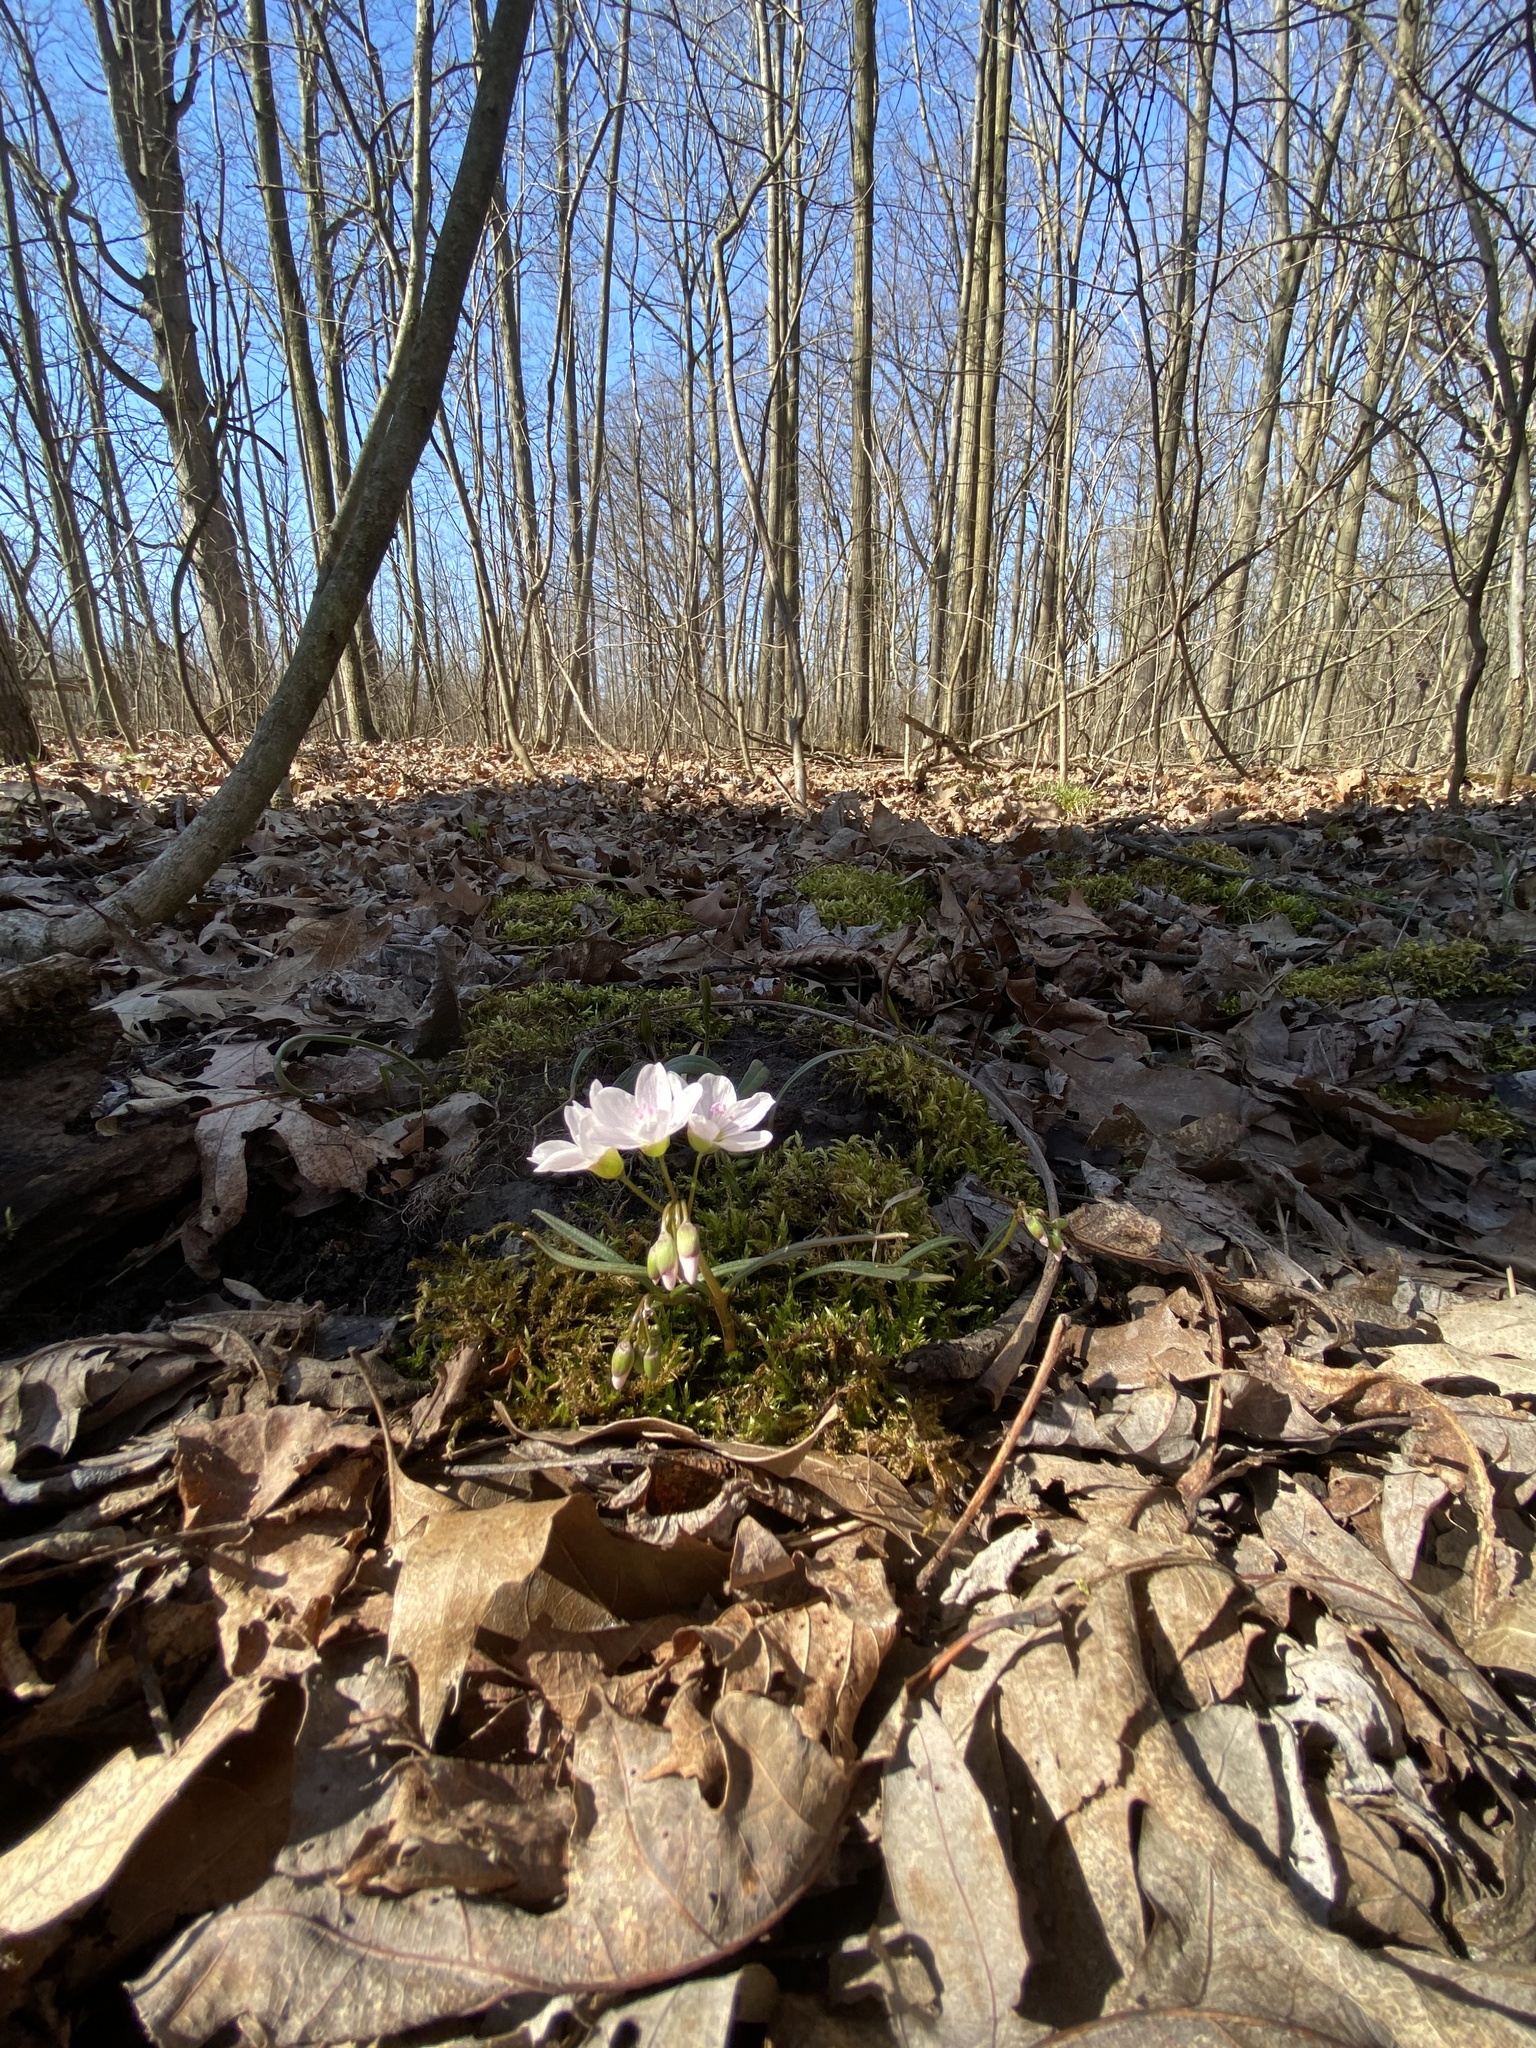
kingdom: Plantae
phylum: Tracheophyta
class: Magnoliopsida
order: Caryophyllales
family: Montiaceae
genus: Claytonia
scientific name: Claytonia virginica
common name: Virginia springbeauty
